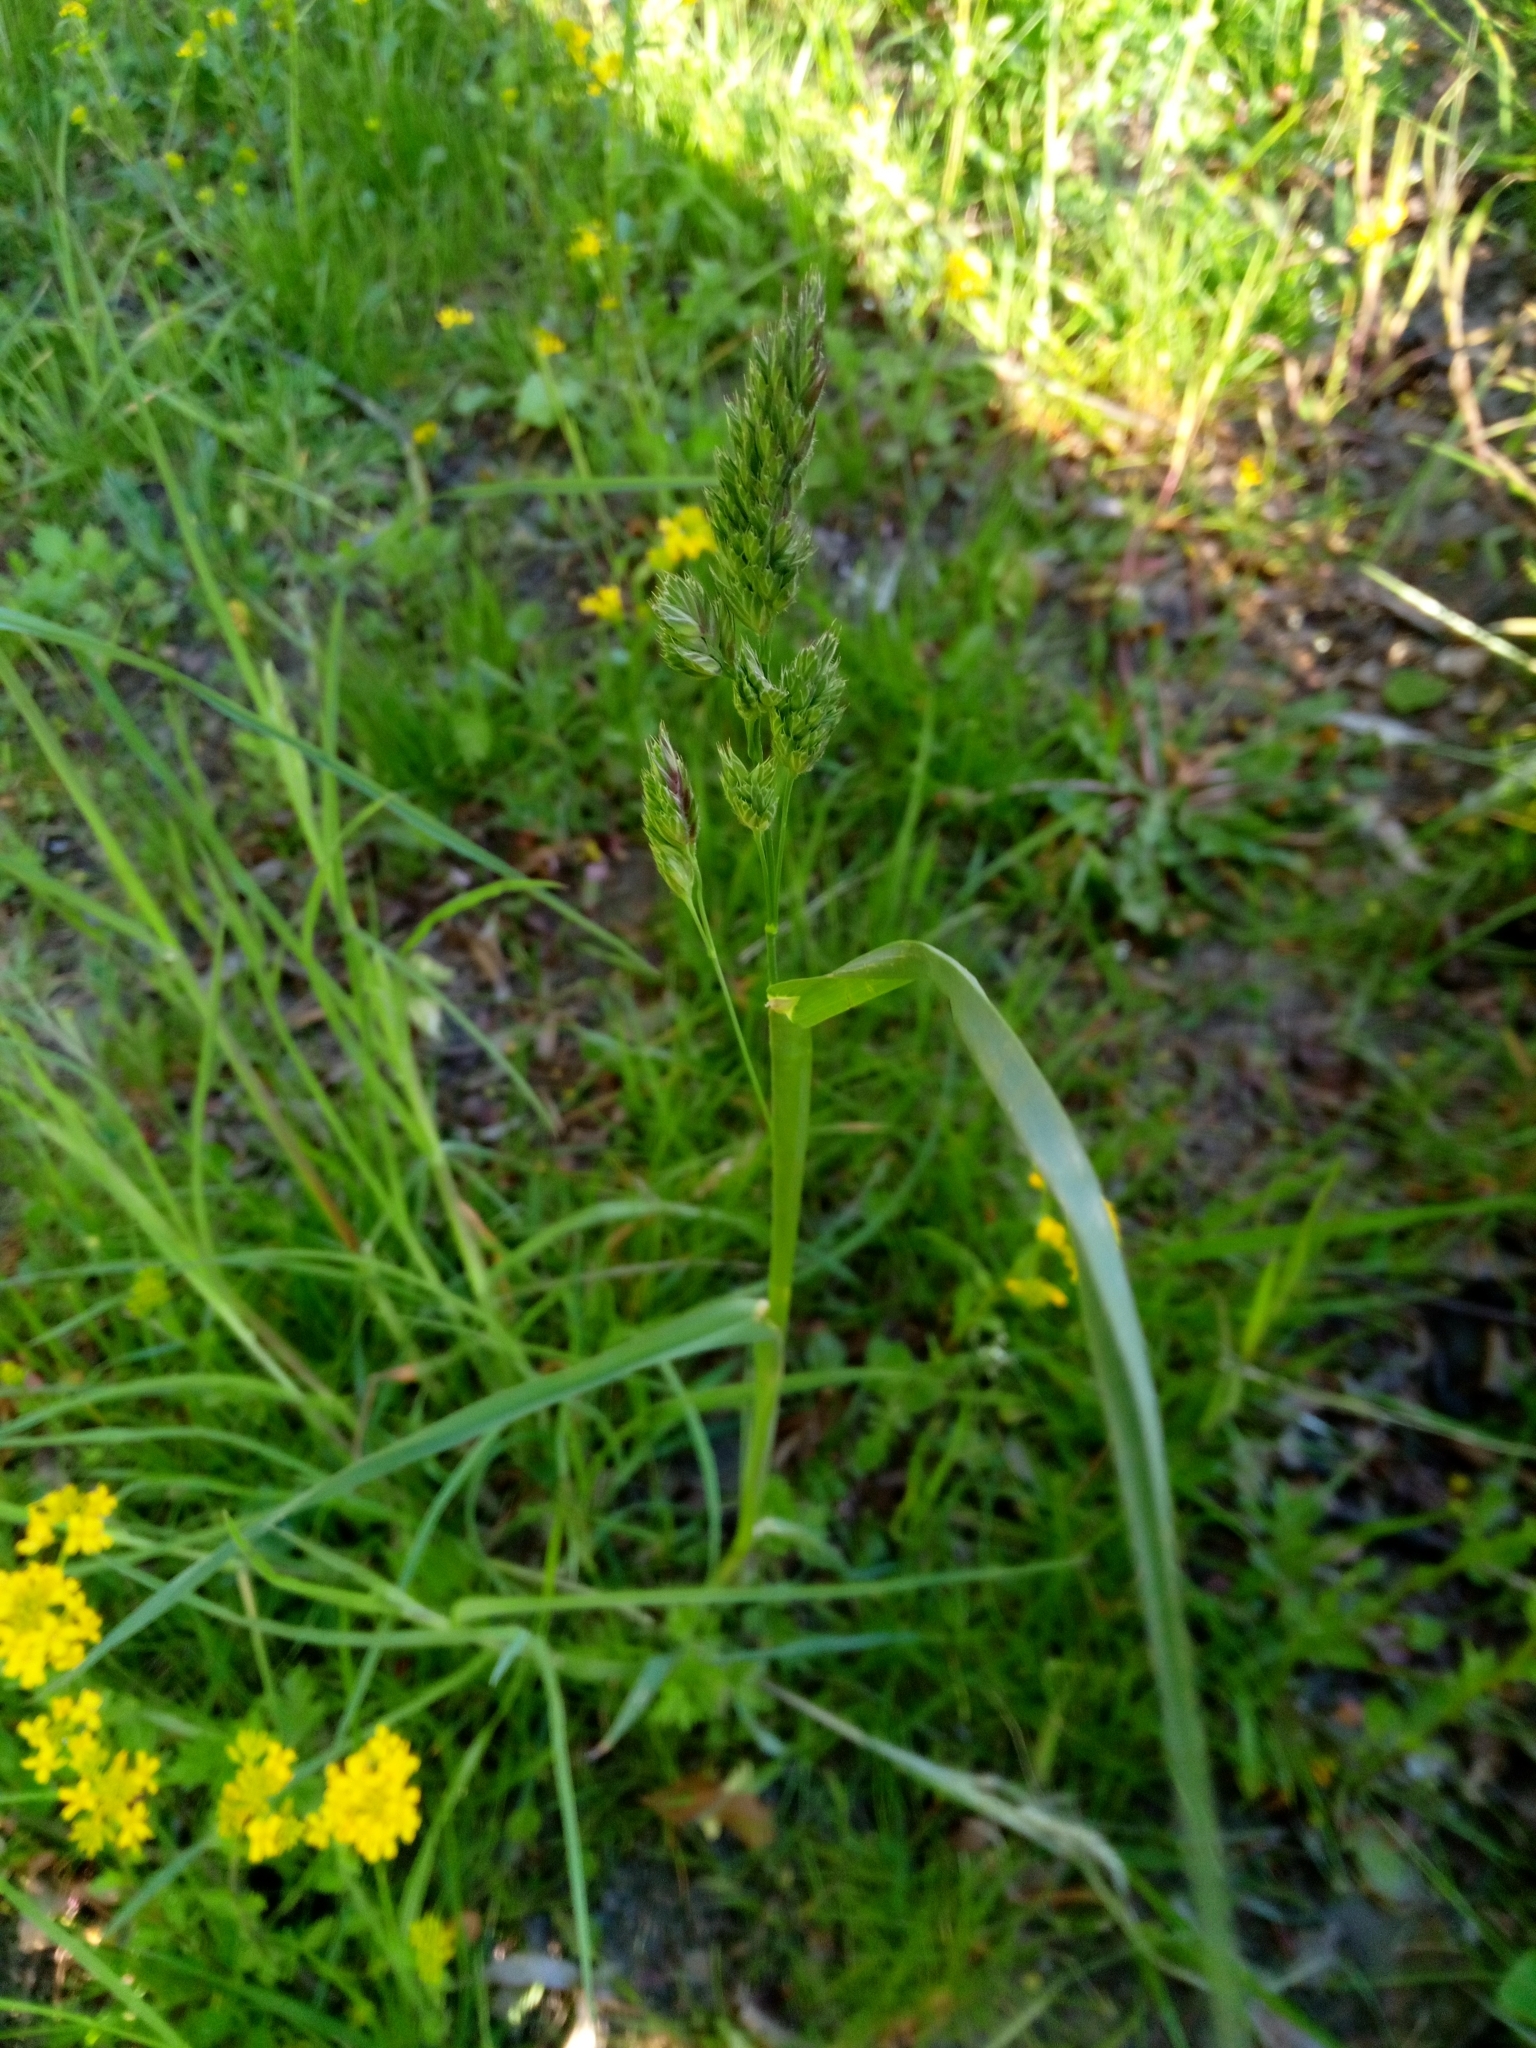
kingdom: Plantae
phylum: Tracheophyta
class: Liliopsida
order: Poales
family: Poaceae
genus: Dactylis
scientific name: Dactylis glomerata
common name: Orchardgrass
